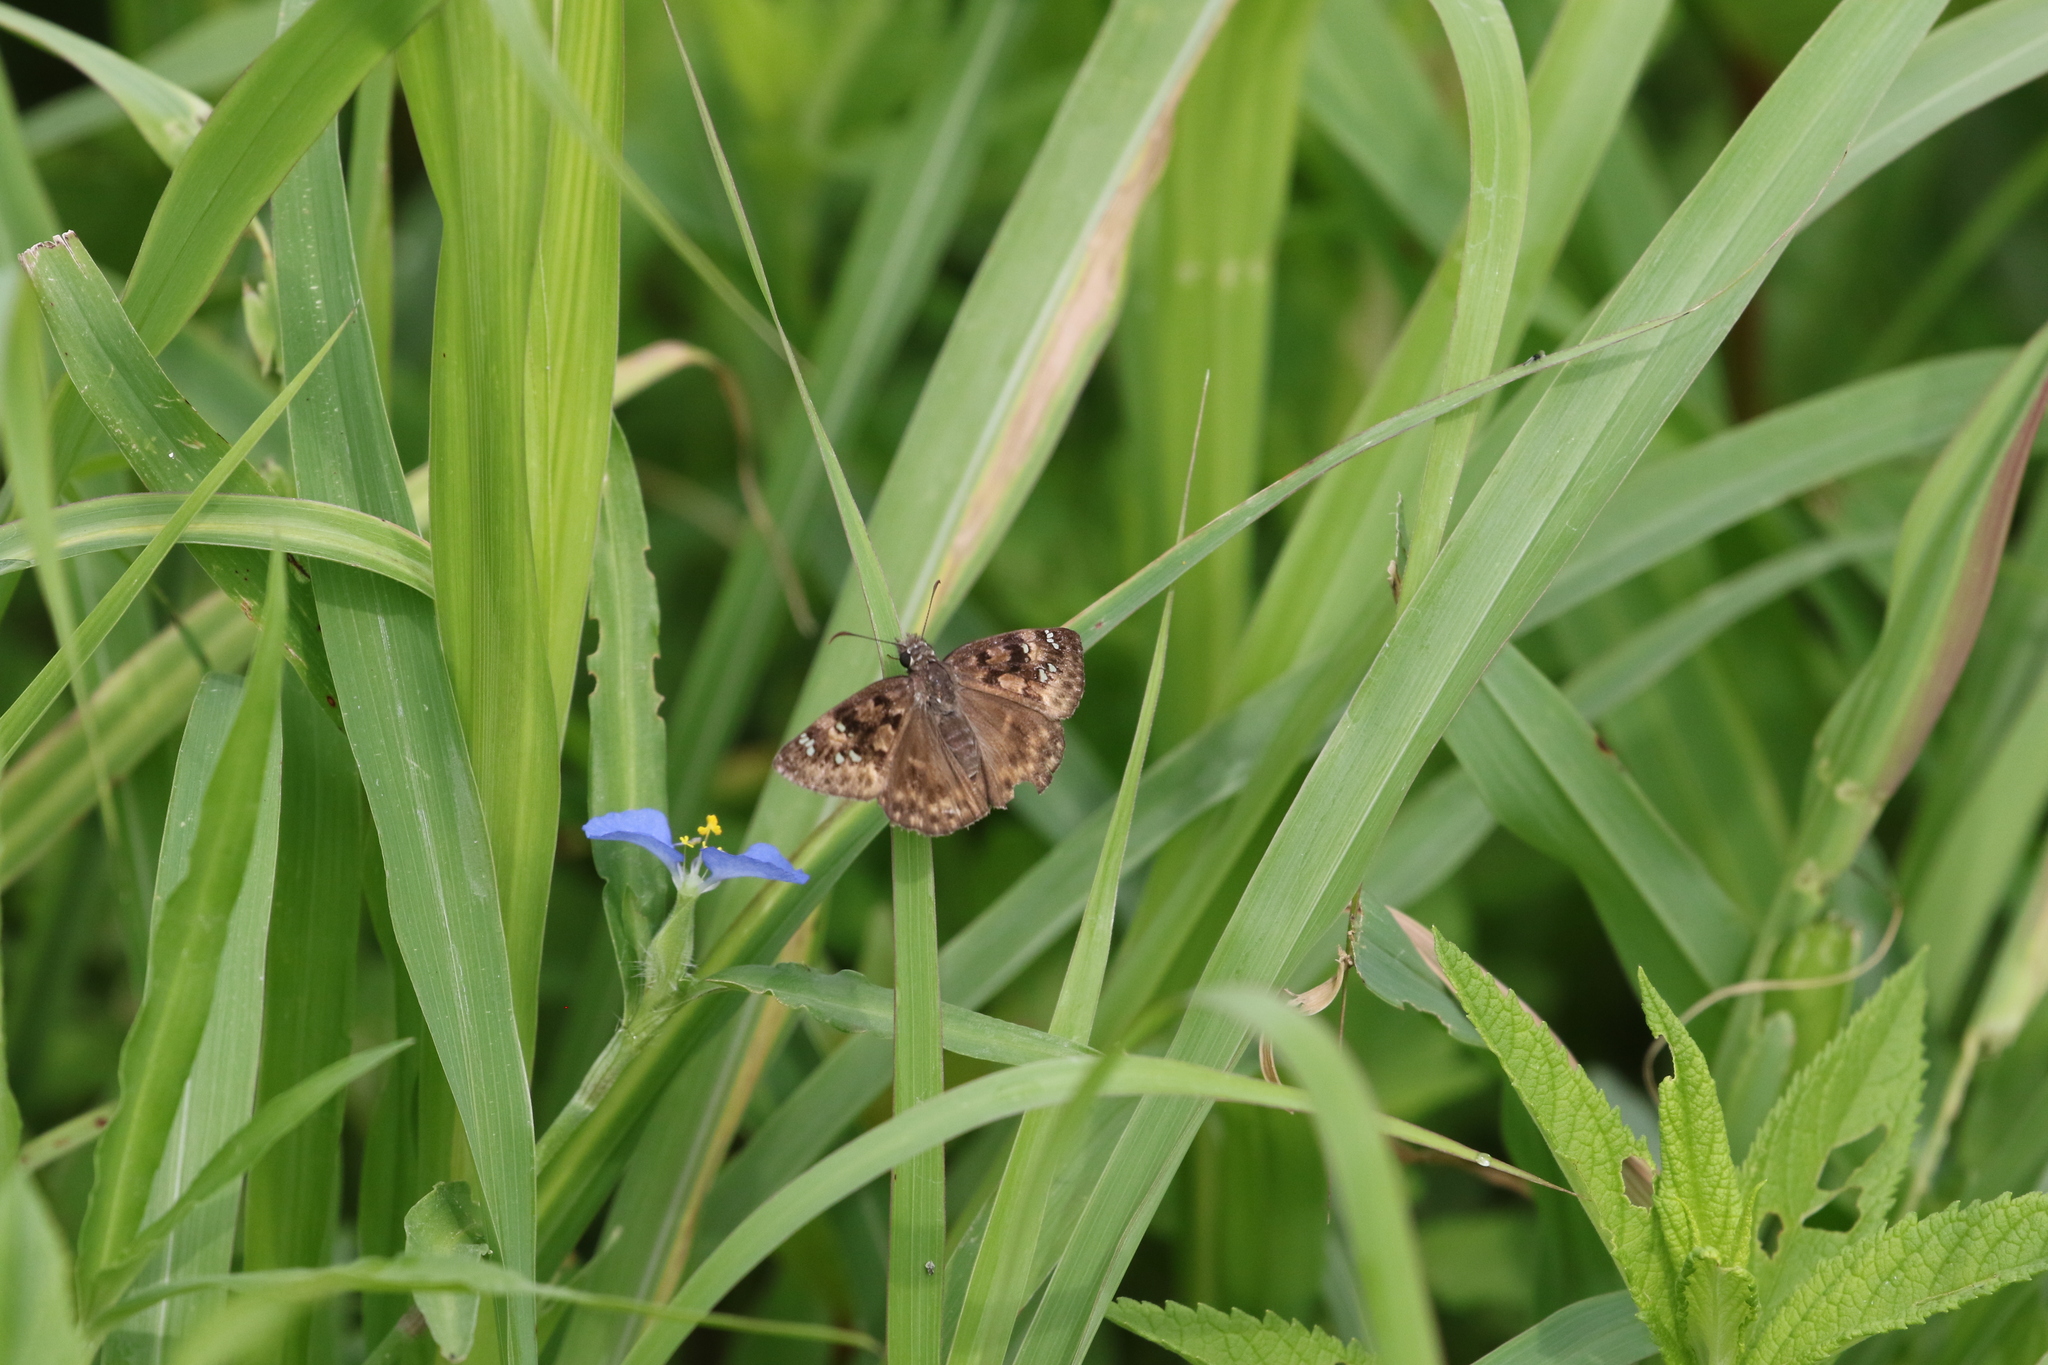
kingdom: Animalia
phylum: Arthropoda
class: Insecta
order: Lepidoptera
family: Hesperiidae
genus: Erynnis
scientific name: Erynnis horatius
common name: Horace's duskywing
